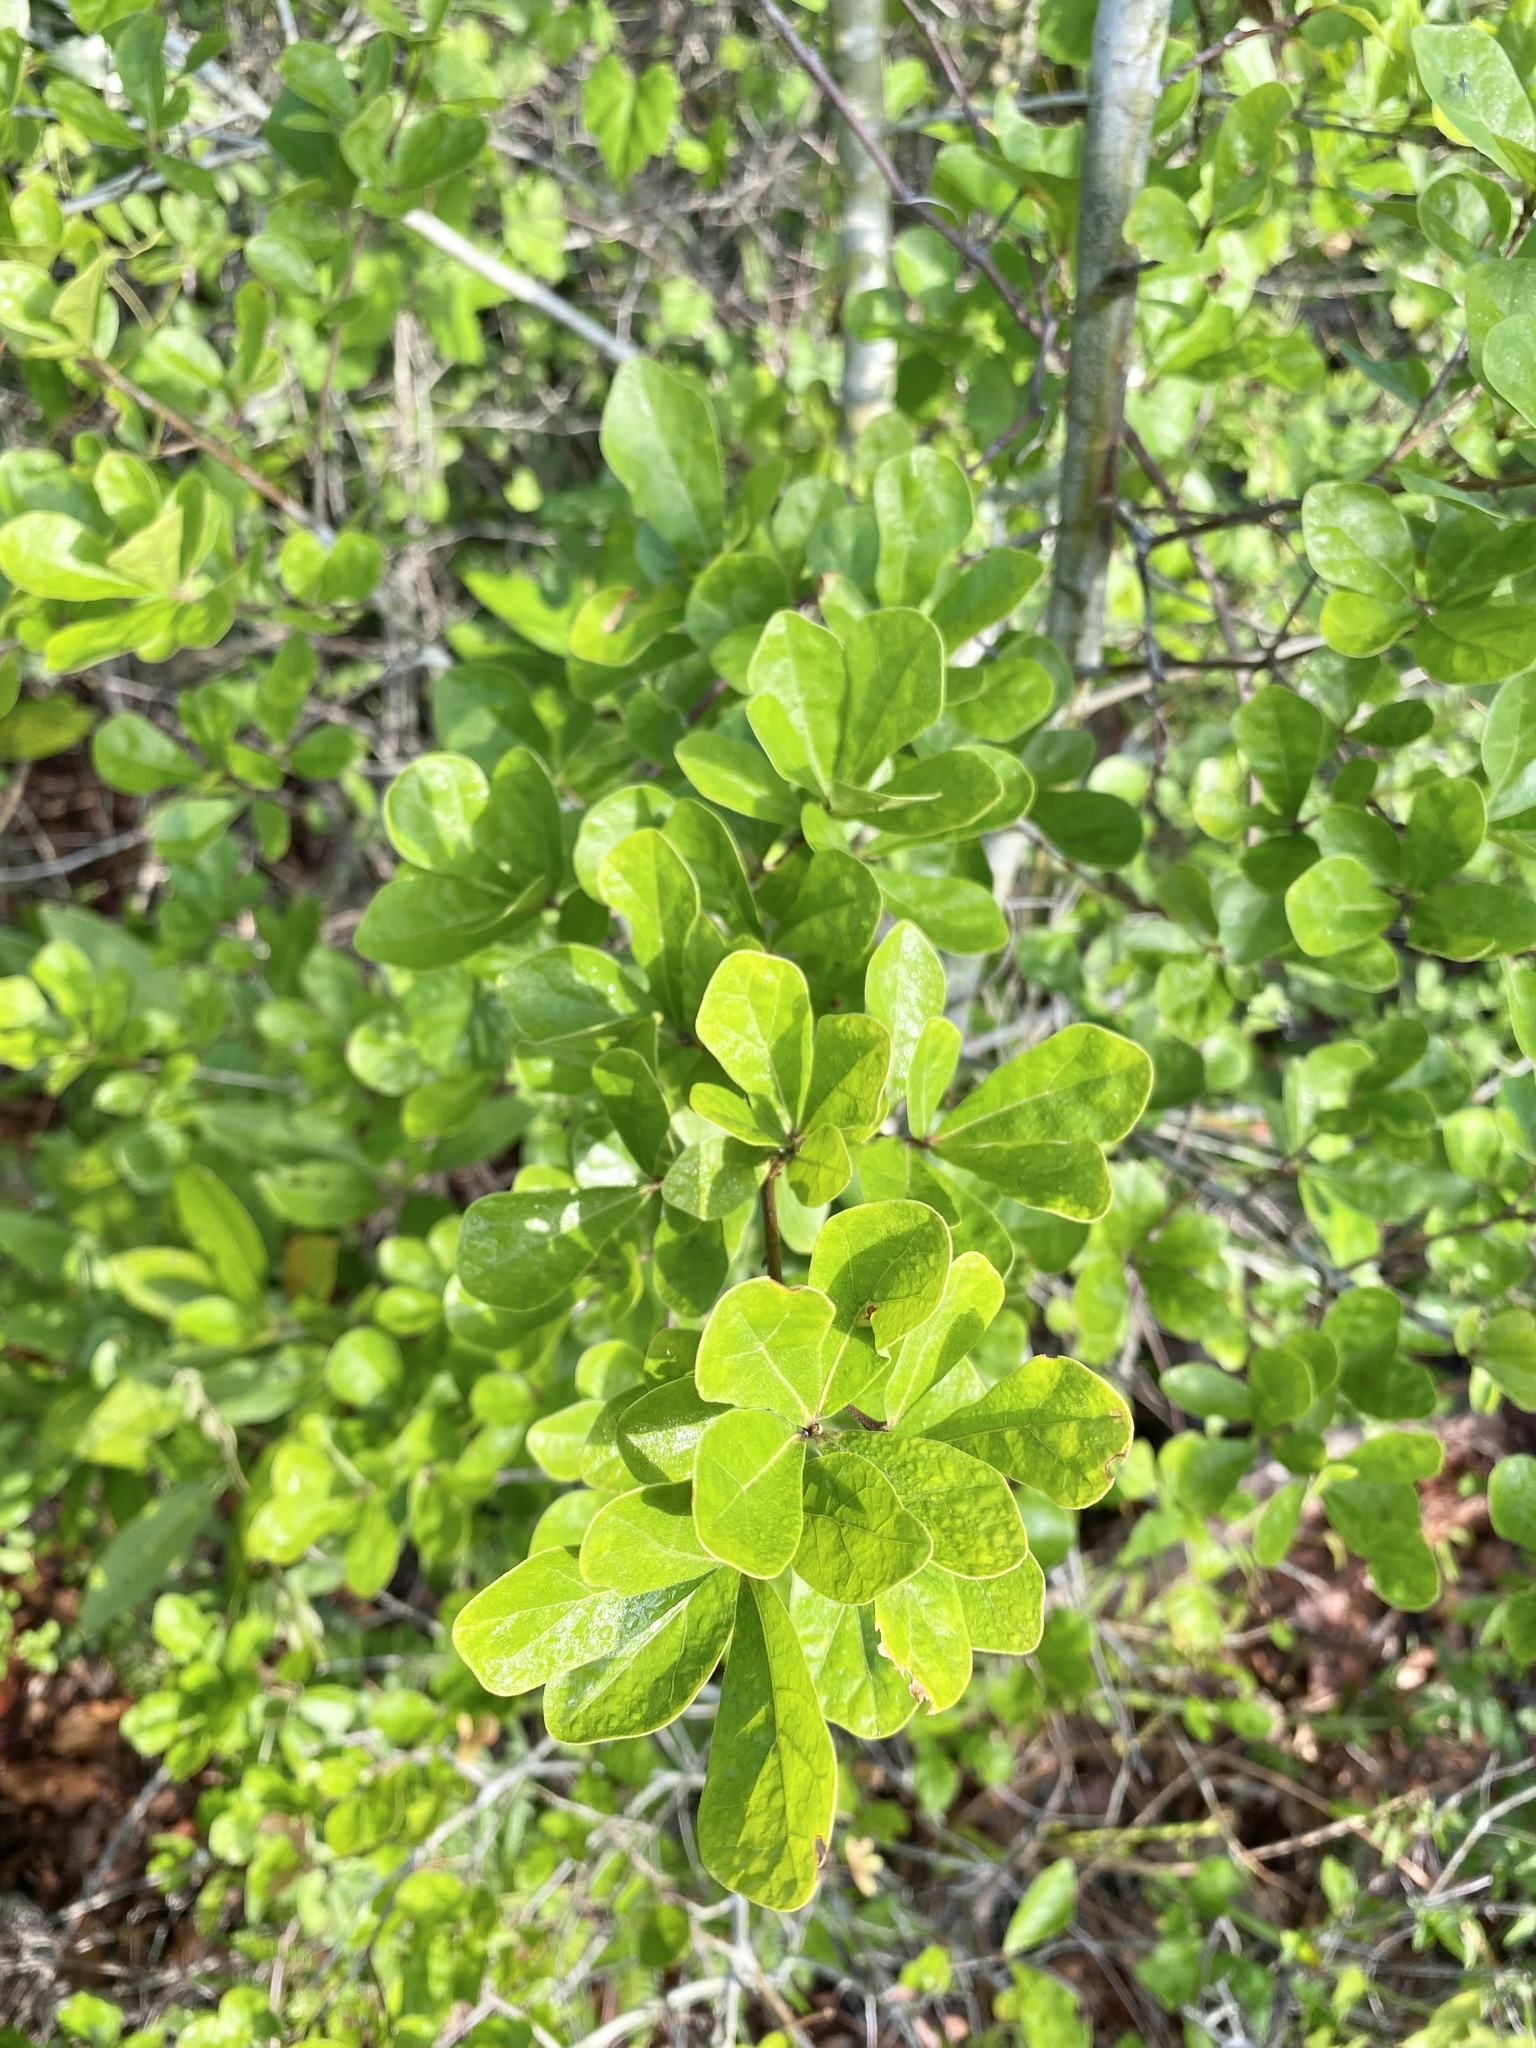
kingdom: Plantae
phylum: Tracheophyta
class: Magnoliopsida
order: Fagales
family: Fagaceae
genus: Quercus
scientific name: Quercus myrtifolia
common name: Myrtle oak
